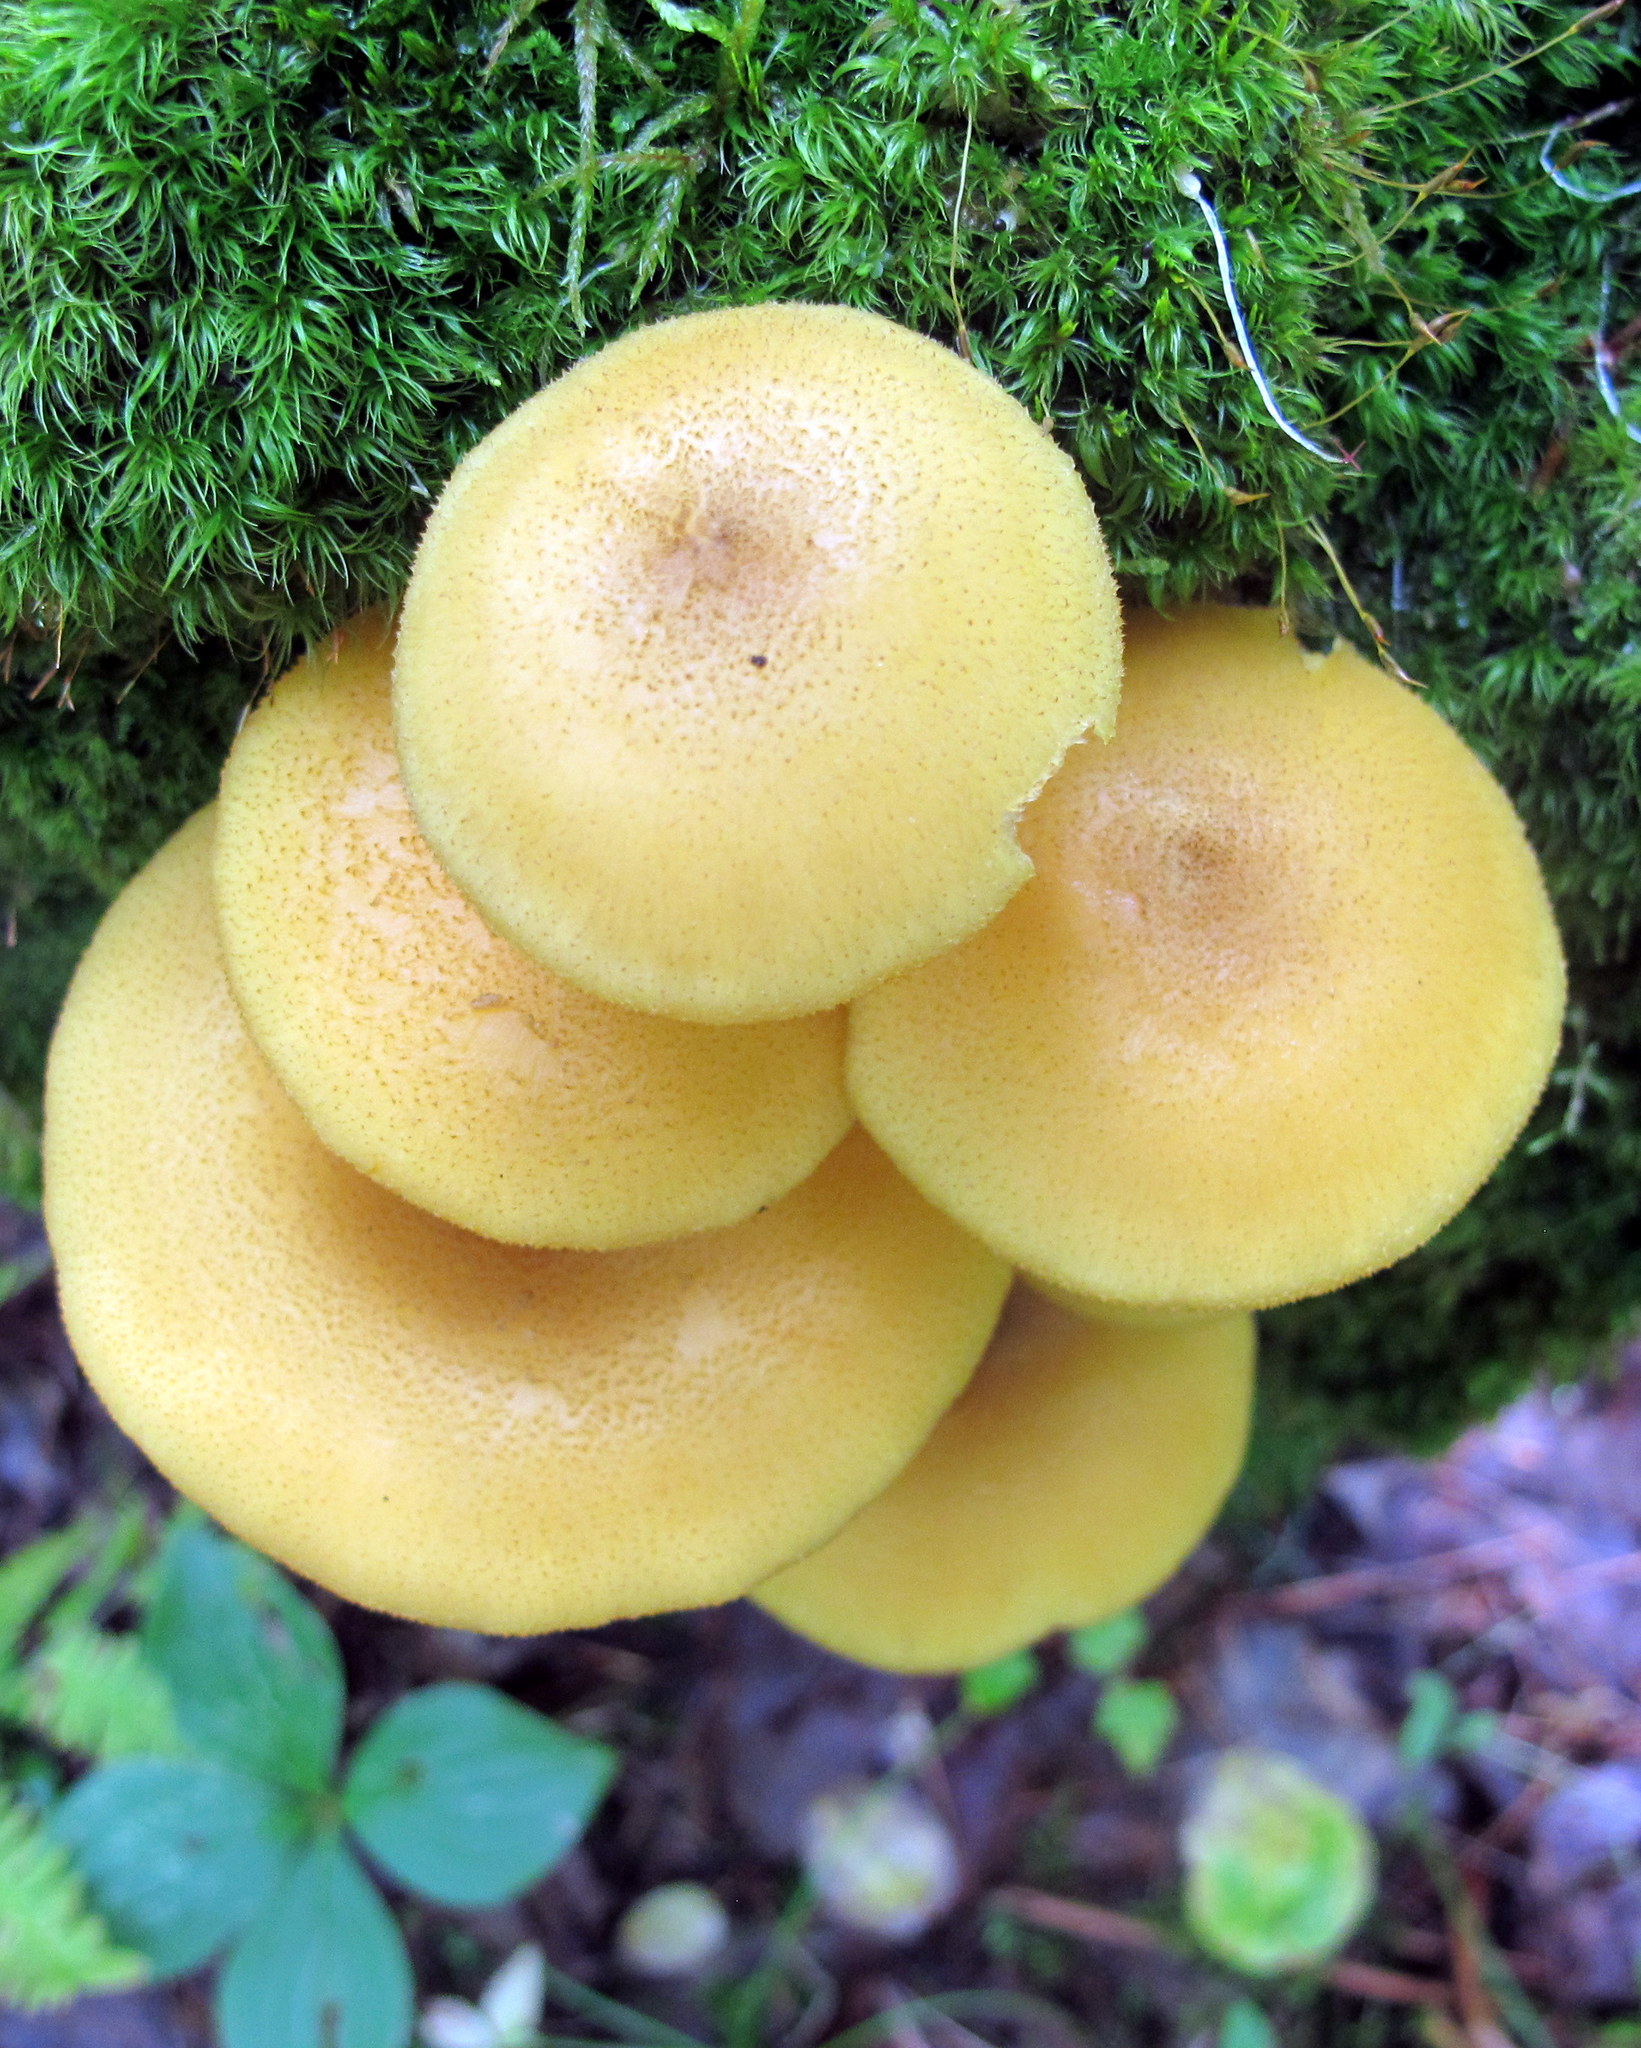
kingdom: Fungi
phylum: Basidiomycota
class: Agaricomycetes
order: Agaricales
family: Tricholomataceae
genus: Tricholomopsis
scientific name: Tricholomopsis decora
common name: Prunes and custard
